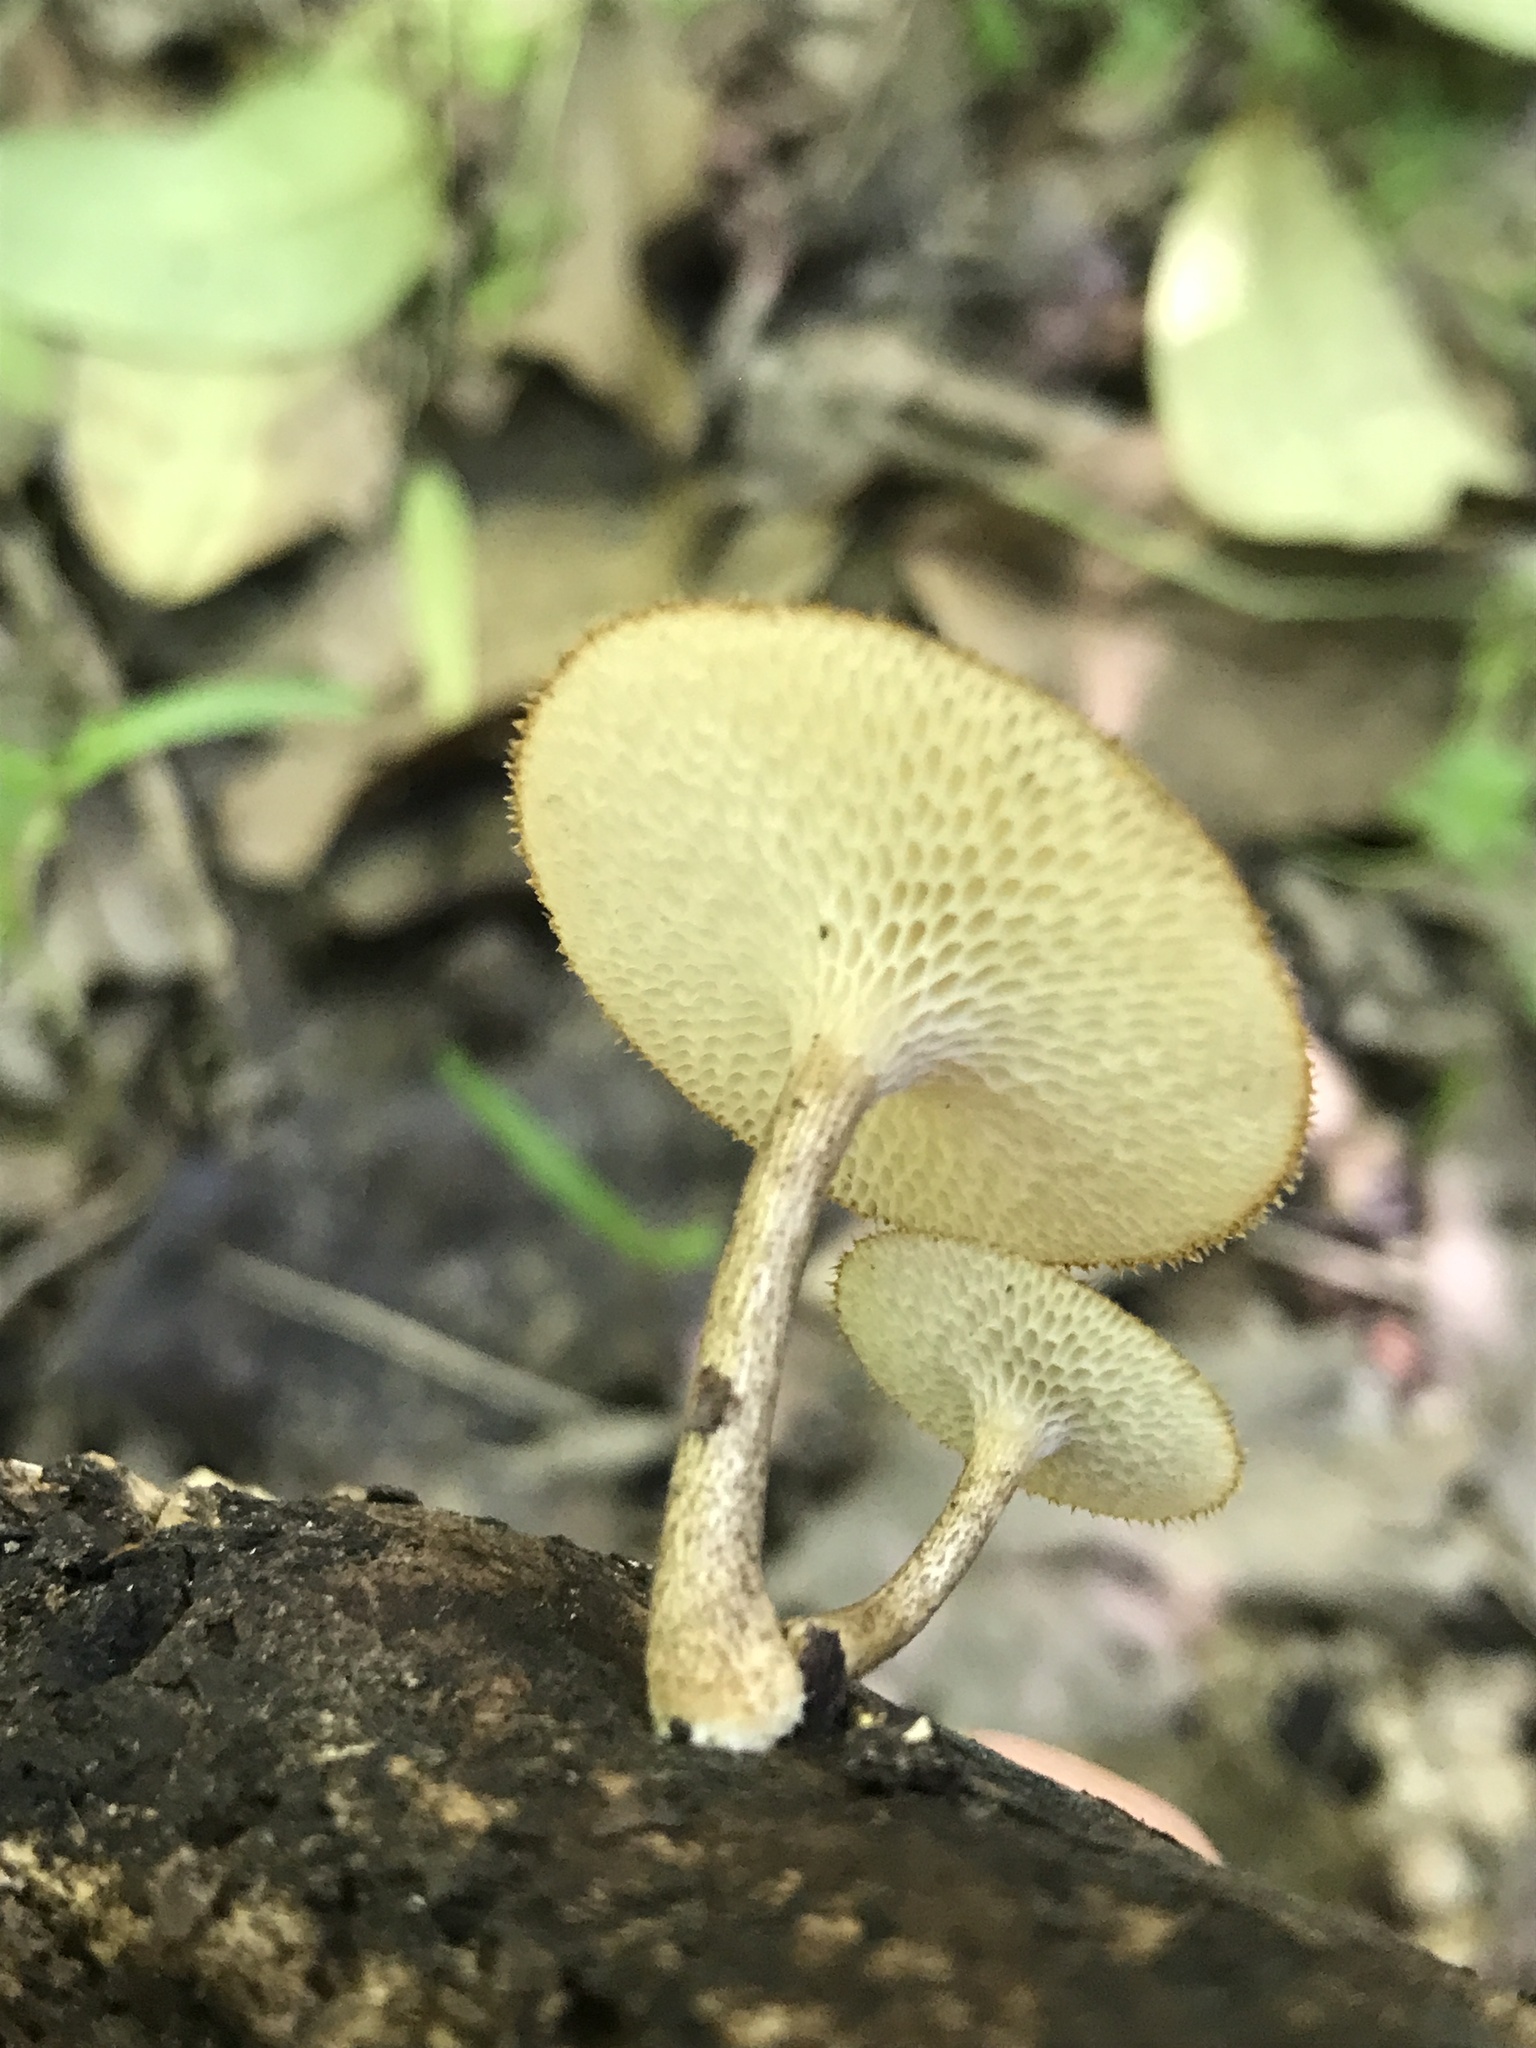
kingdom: Fungi
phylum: Basidiomycota
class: Agaricomycetes
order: Polyporales
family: Polyporaceae
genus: Lentinus
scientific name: Lentinus arcularius
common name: Spring polypore
